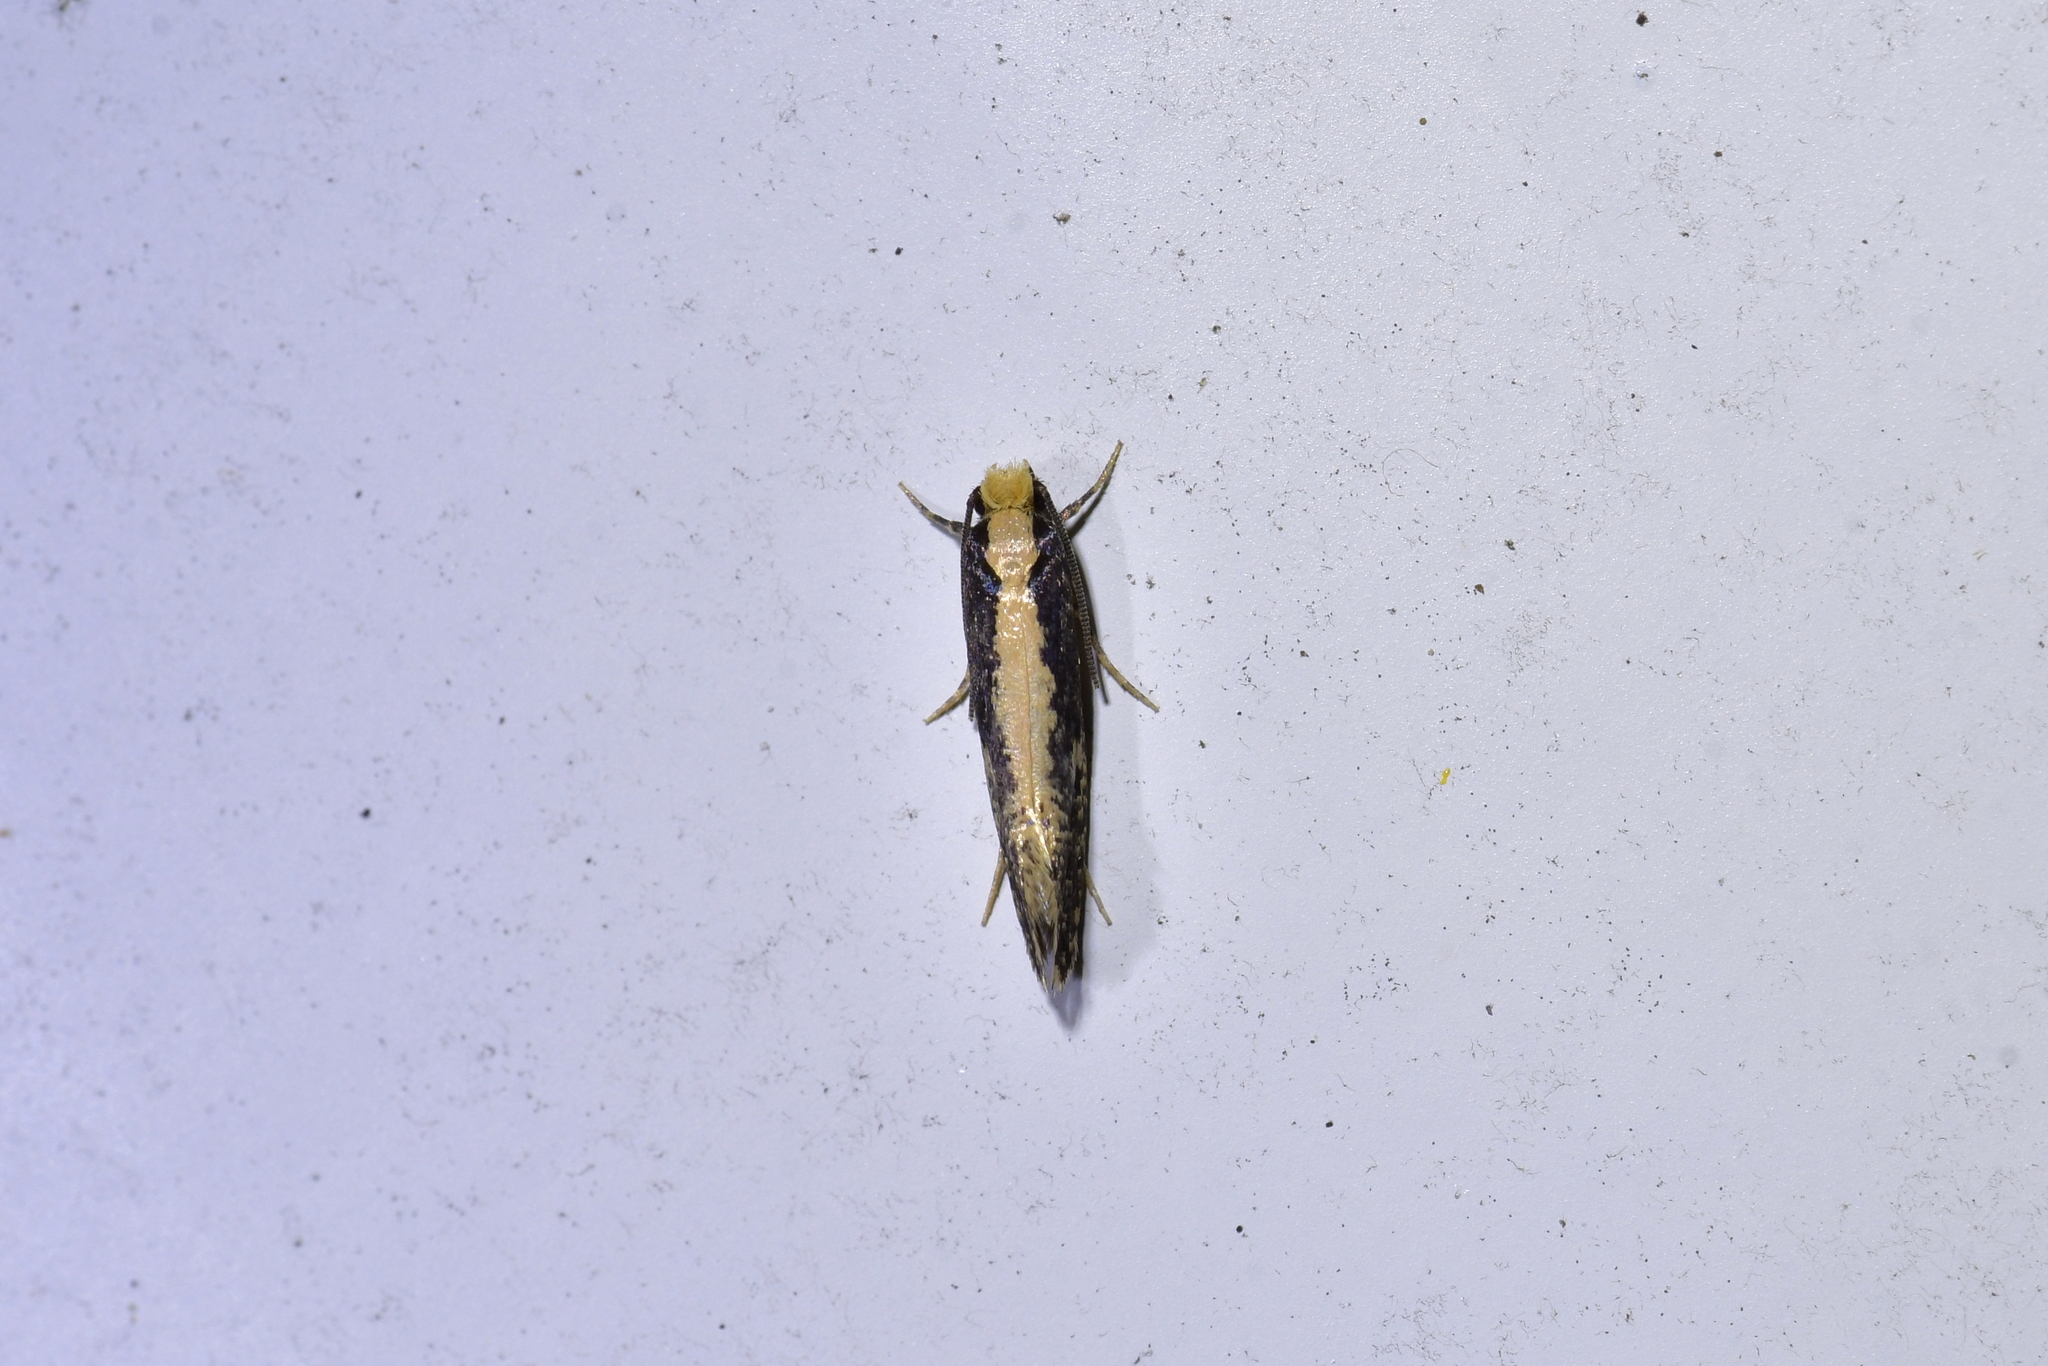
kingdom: Animalia
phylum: Arthropoda
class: Insecta
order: Lepidoptera
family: Tineidae
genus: Monopis
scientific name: Monopis ethelella
